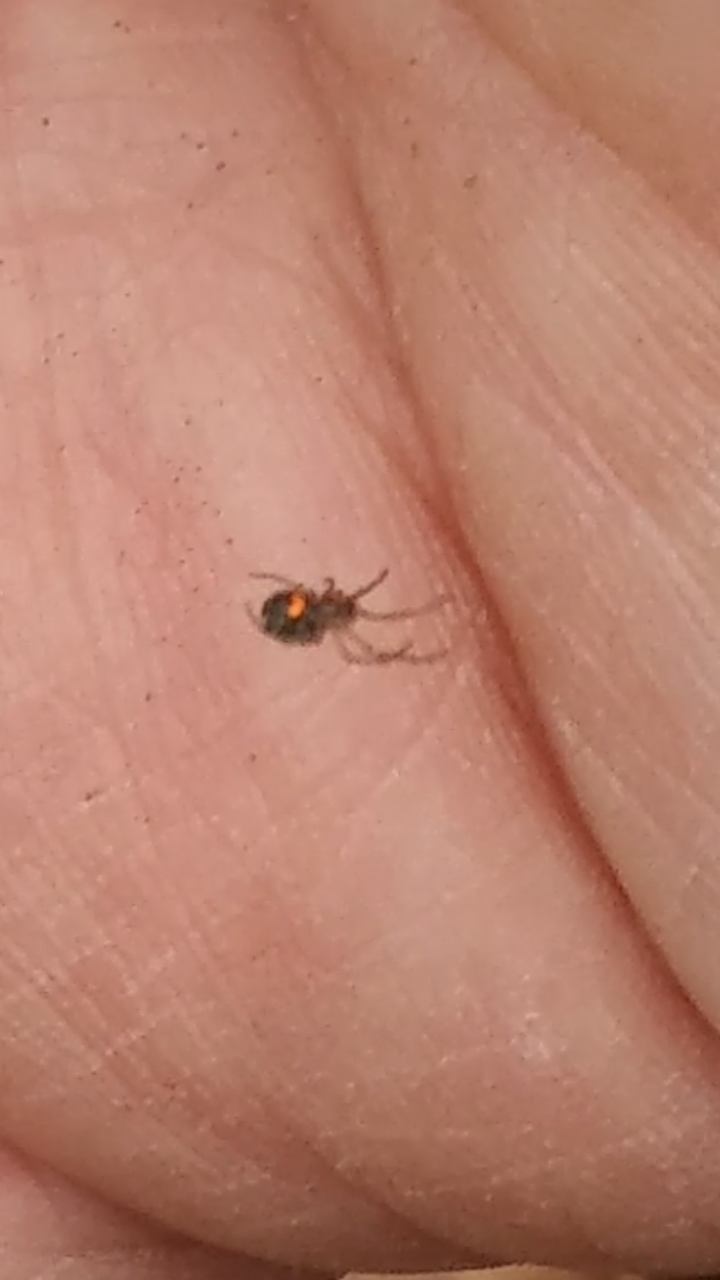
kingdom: Animalia
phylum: Arthropoda
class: Arachnida
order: Araneae
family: Tetragnathidae
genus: Leucauge
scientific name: Leucauge venusta
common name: Longjawed orb weavers
